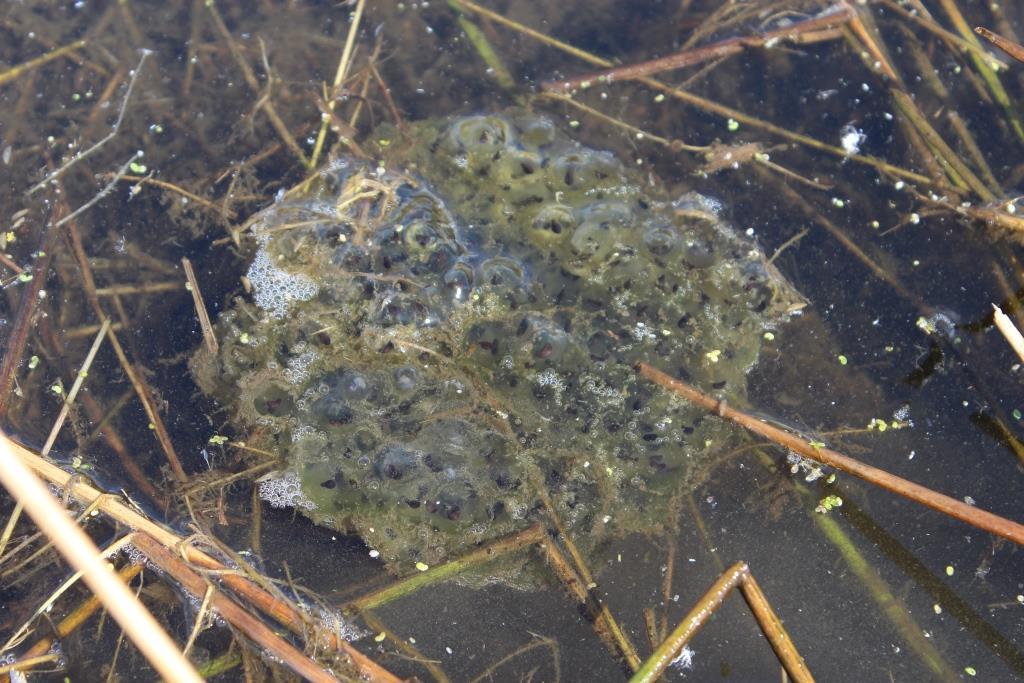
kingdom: Animalia
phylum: Chordata
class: Amphibia
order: Anura
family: Ranidae
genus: Rana
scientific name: Rana aurora
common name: Red-legged frog
